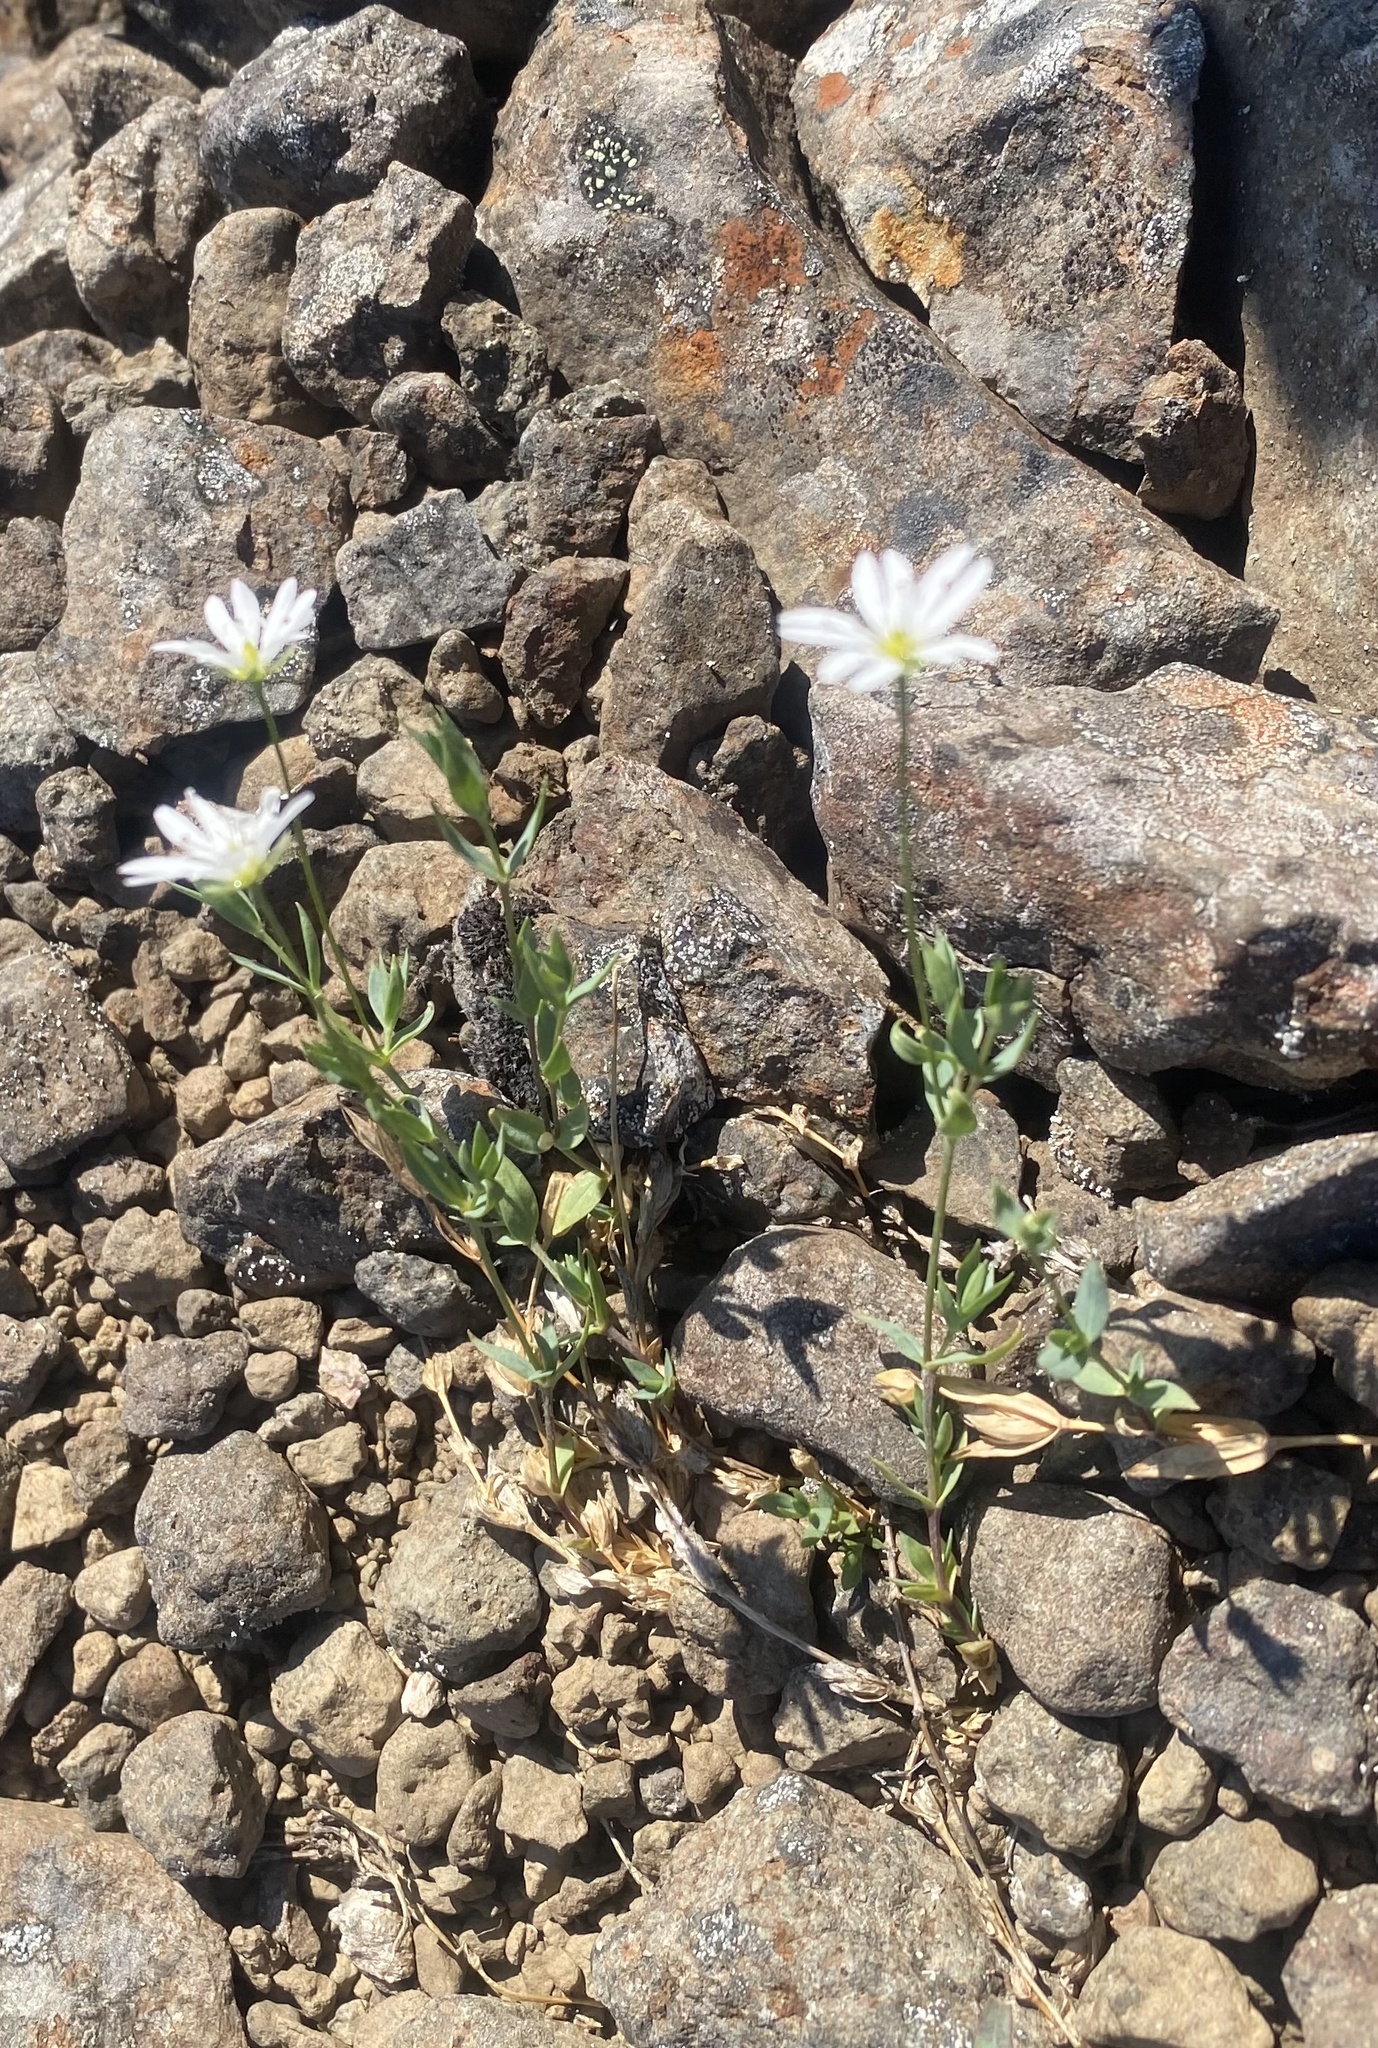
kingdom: Plantae
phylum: Tracheophyta
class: Magnoliopsida
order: Caryophyllales
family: Caryophyllaceae
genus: Stellaria
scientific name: Stellaria fischeriana
